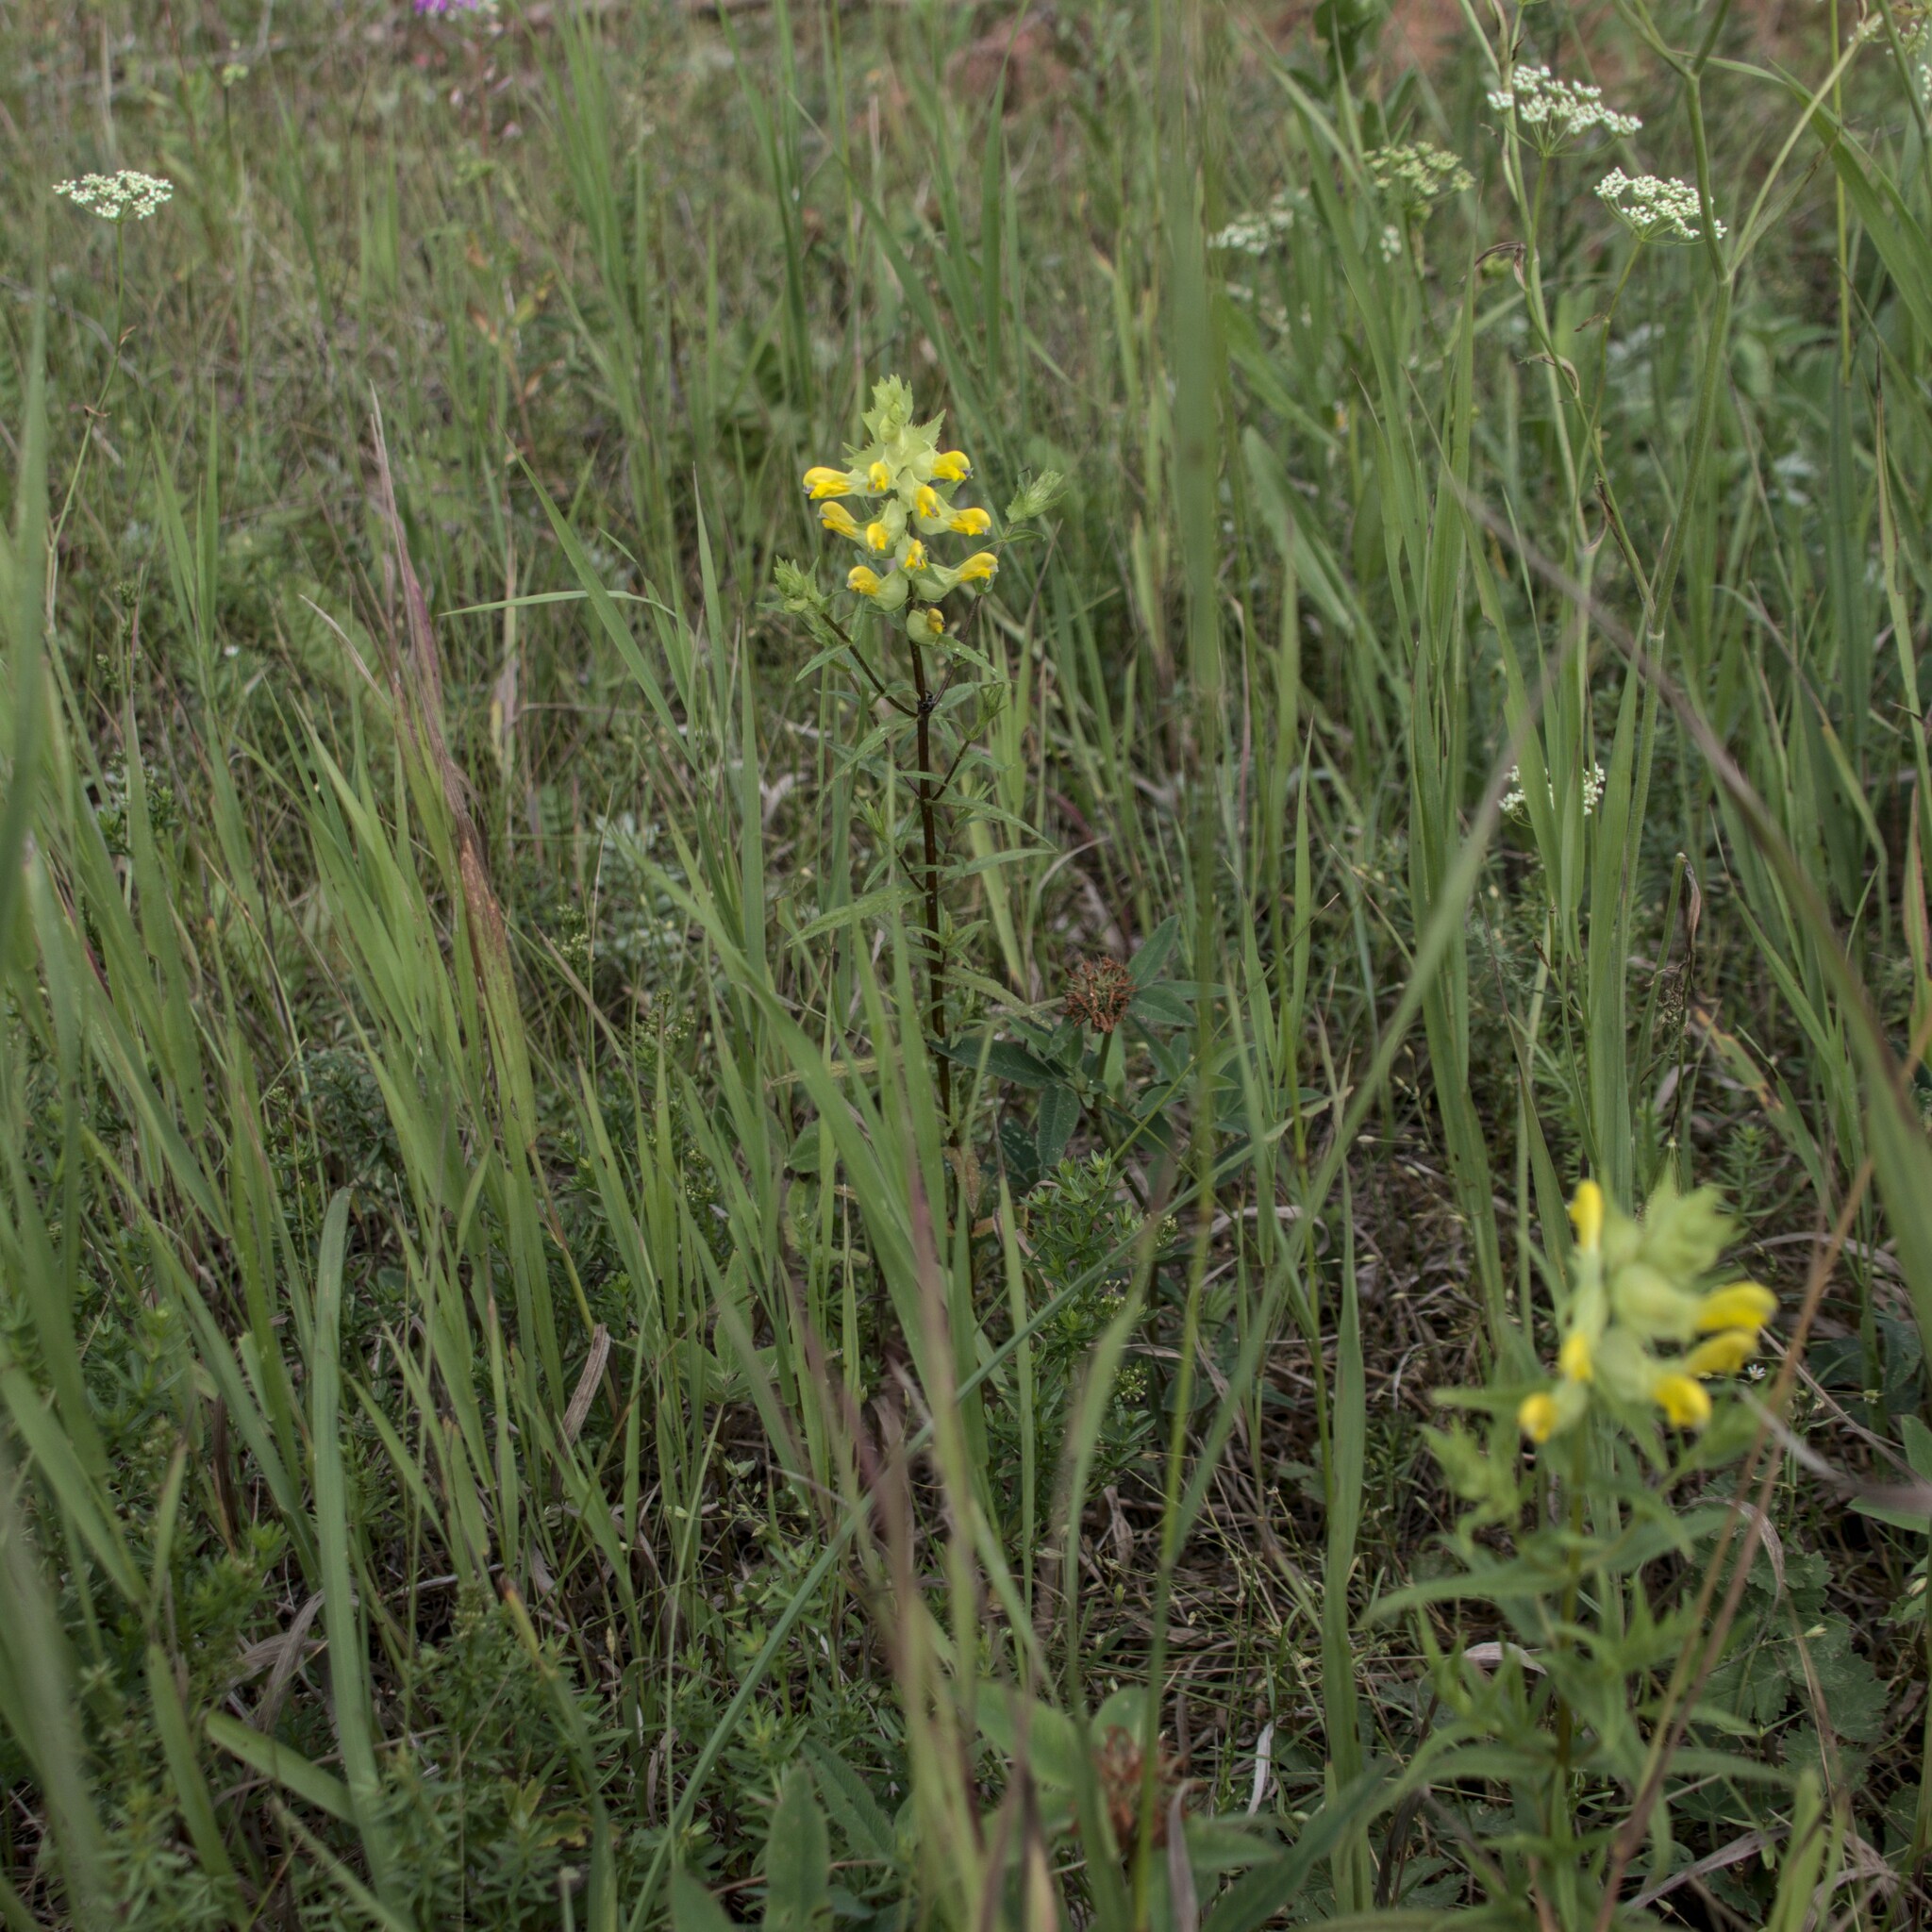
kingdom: Plantae
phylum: Tracheophyta
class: Magnoliopsida
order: Lamiales
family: Orobanchaceae
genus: Rhinanthus
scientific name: Rhinanthus serotinus
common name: Late-flowering yellow rattle
